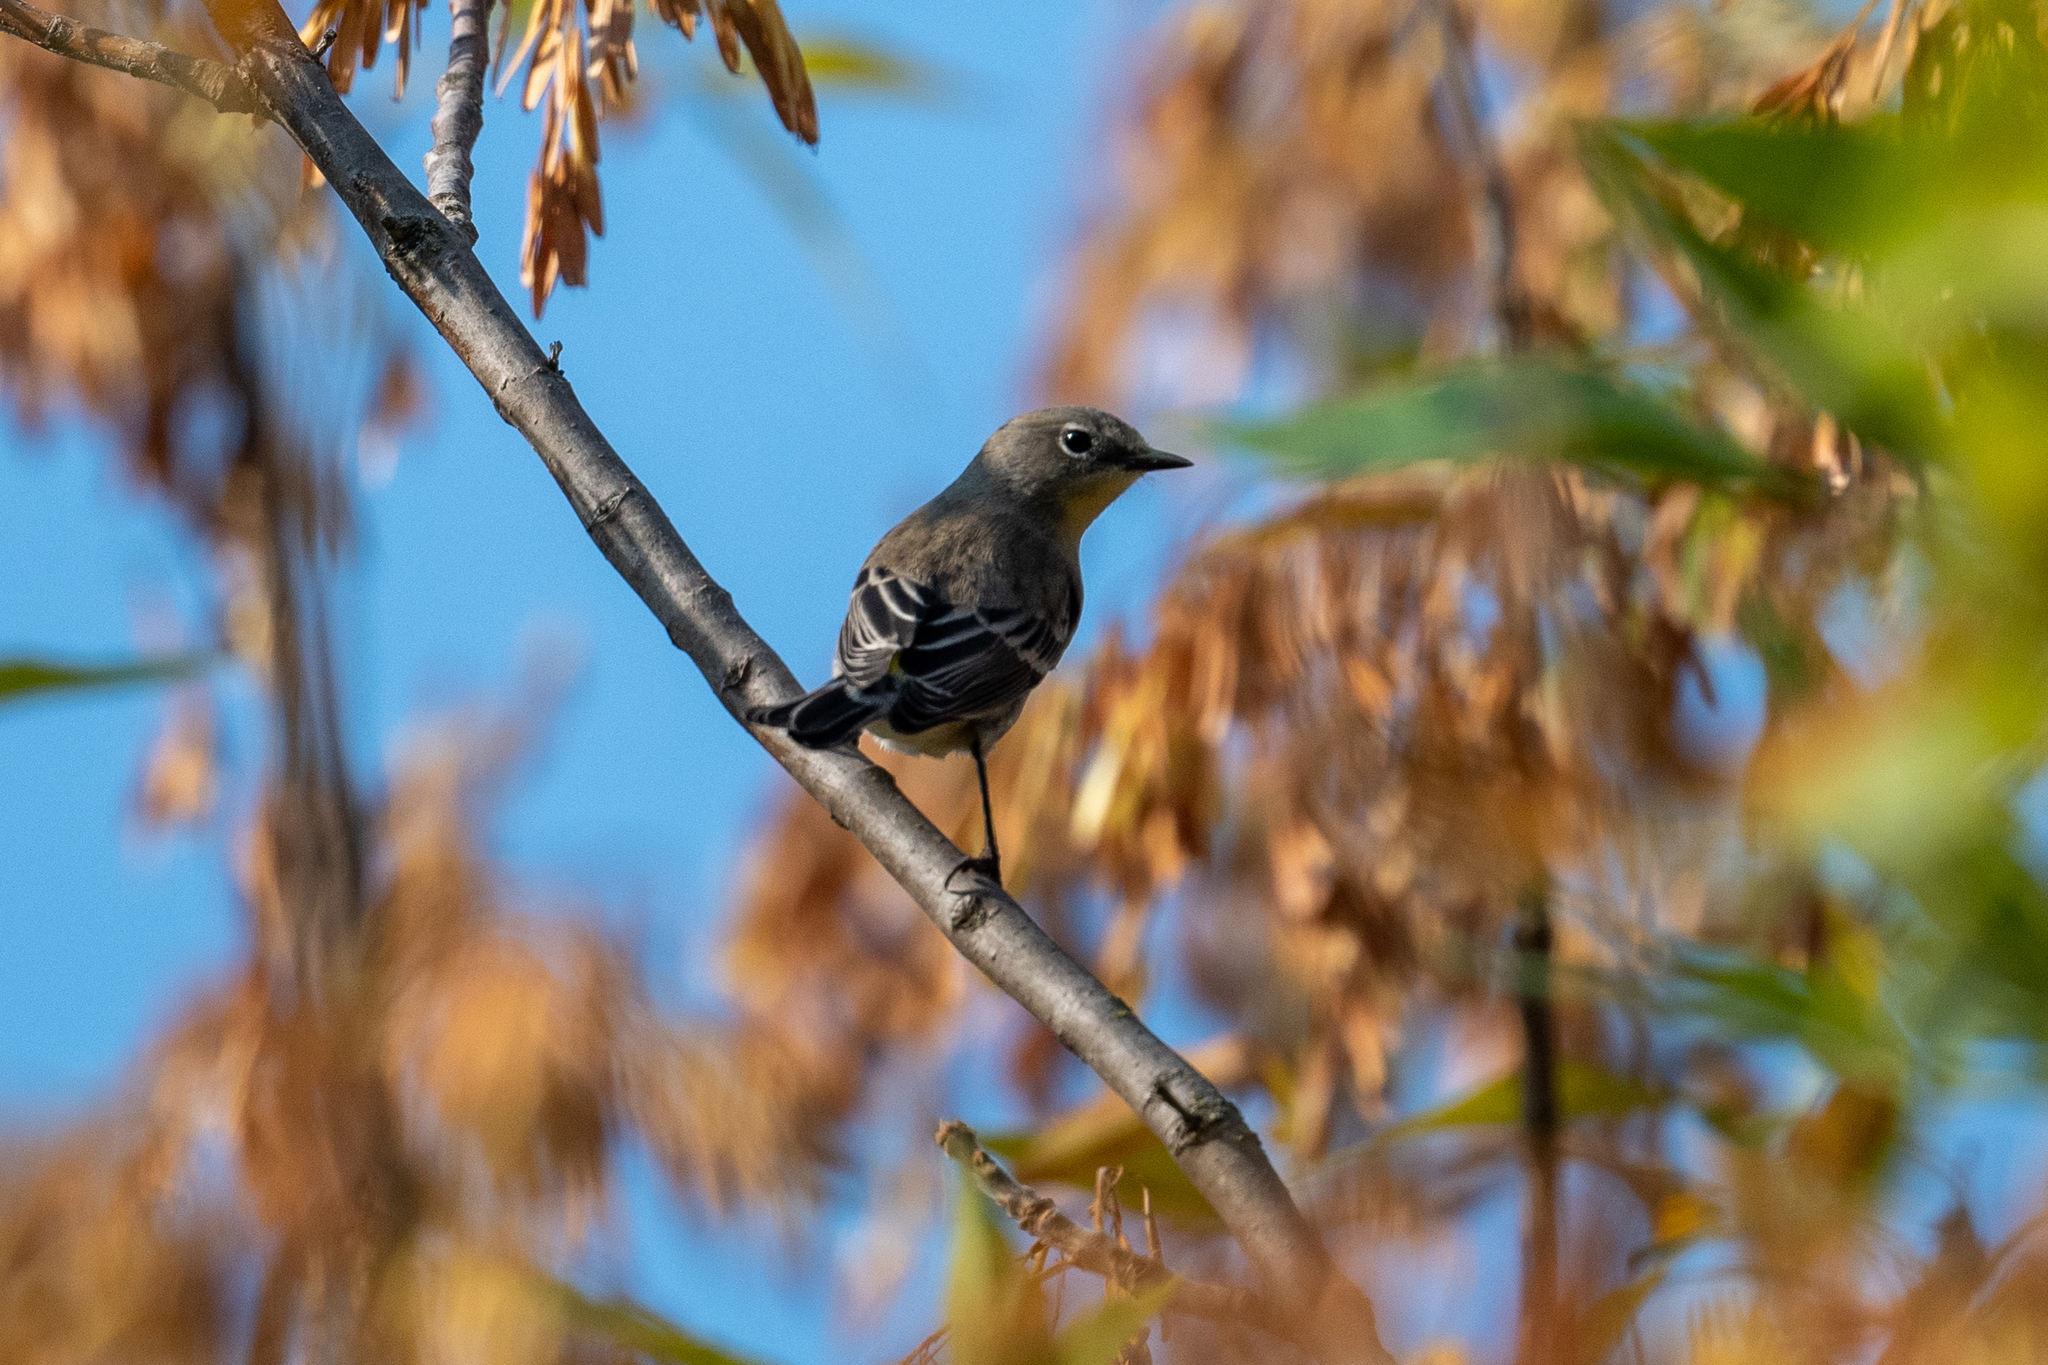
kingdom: Animalia
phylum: Chordata
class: Aves
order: Passeriformes
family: Parulidae
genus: Setophaga
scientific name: Setophaga coronata
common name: Myrtle warbler
